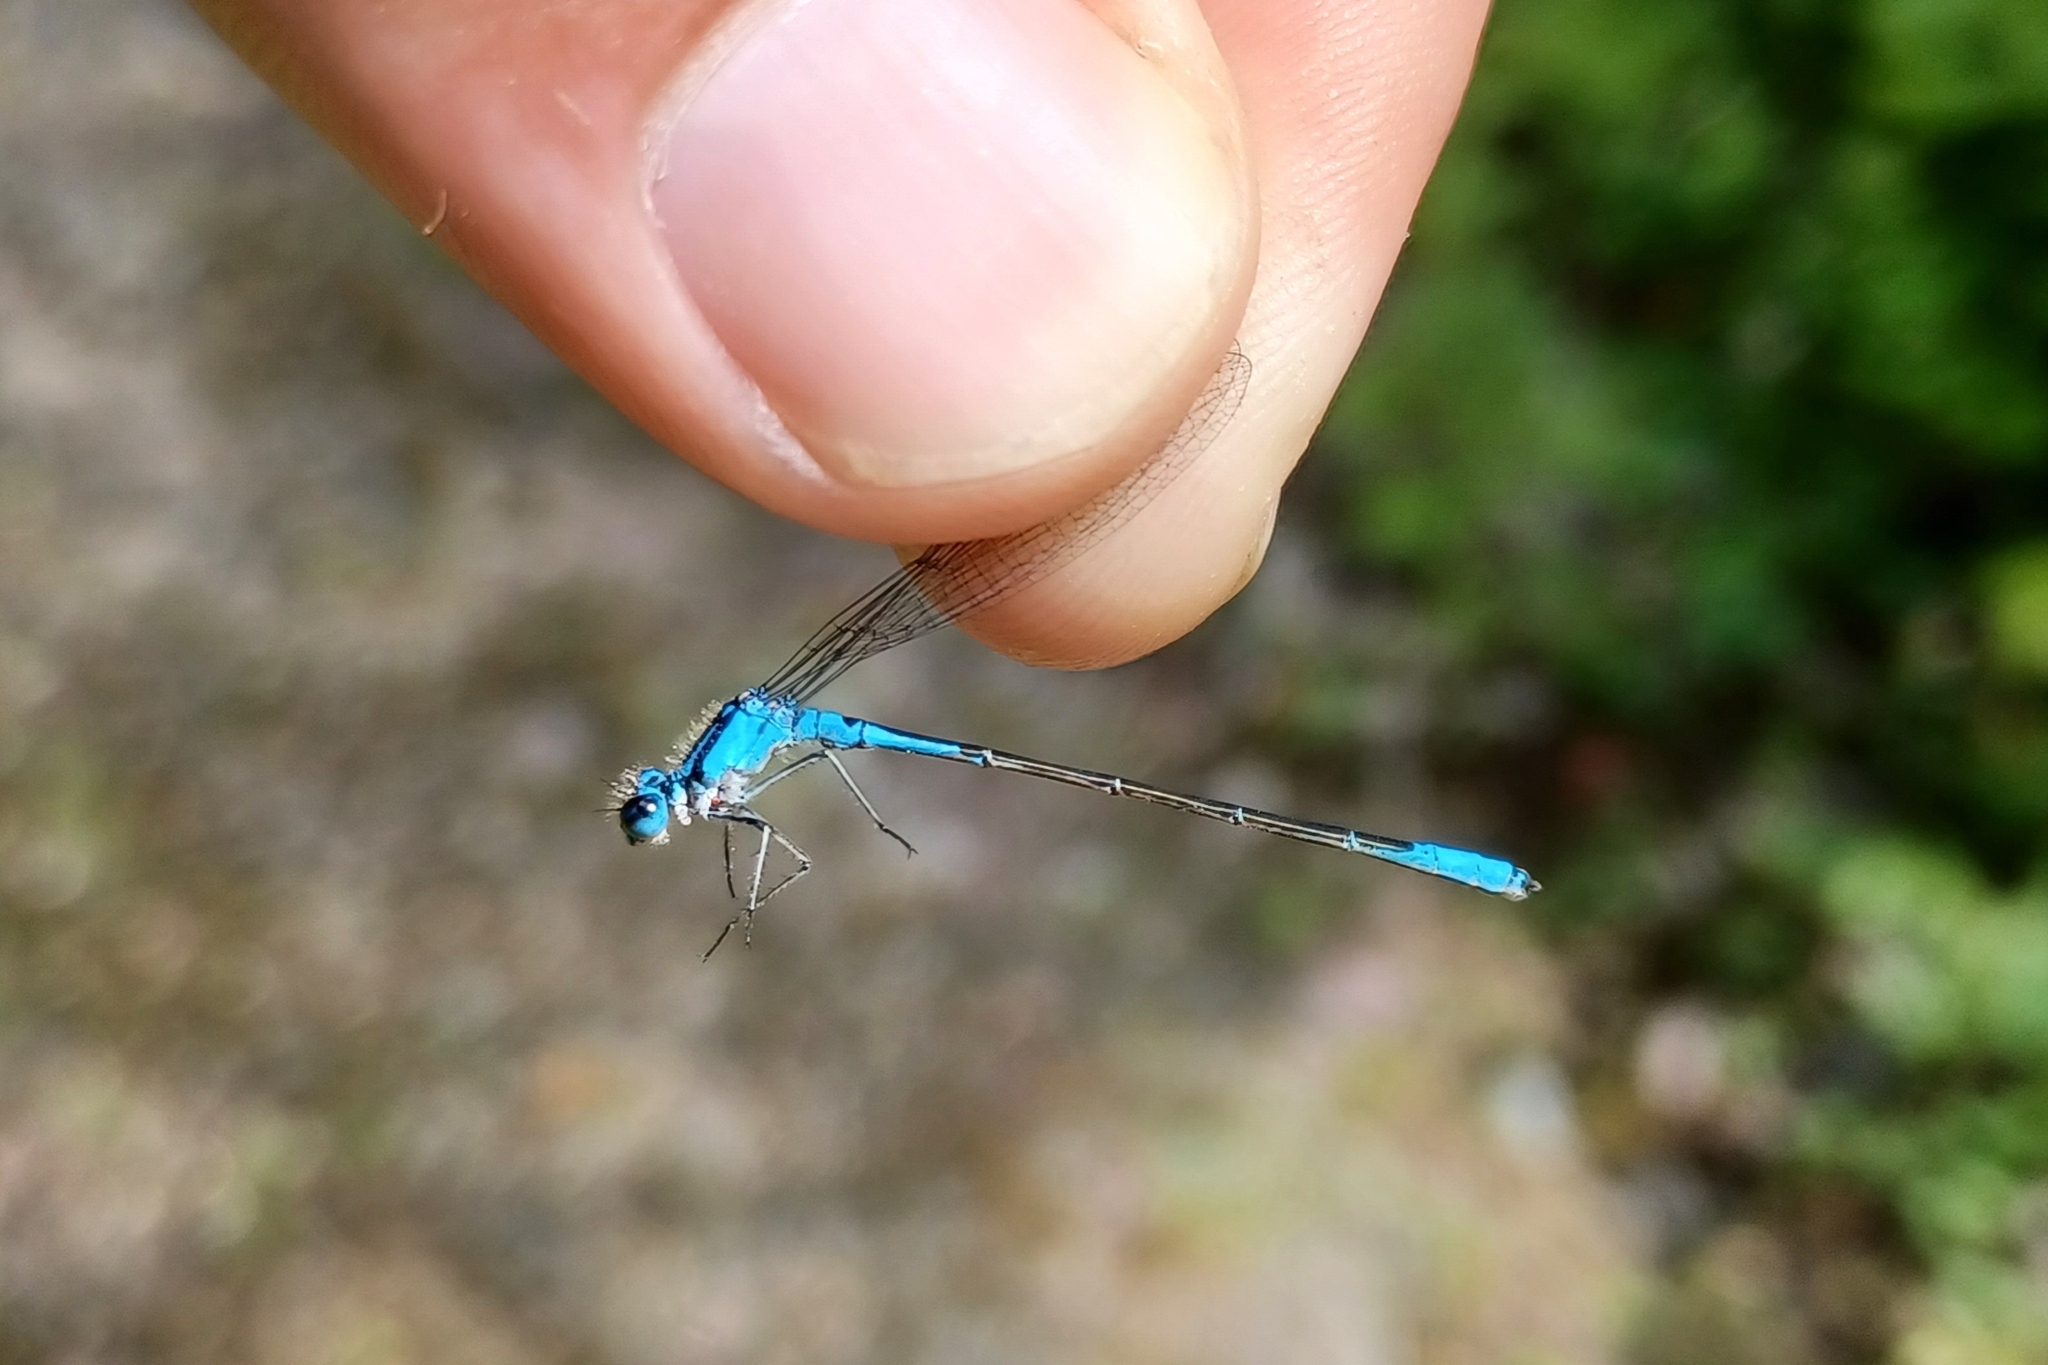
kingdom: Animalia
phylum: Arthropoda
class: Insecta
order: Odonata
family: Coenagrionidae
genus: Enallagma
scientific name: Enallagma aspersum
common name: Azure bluet
